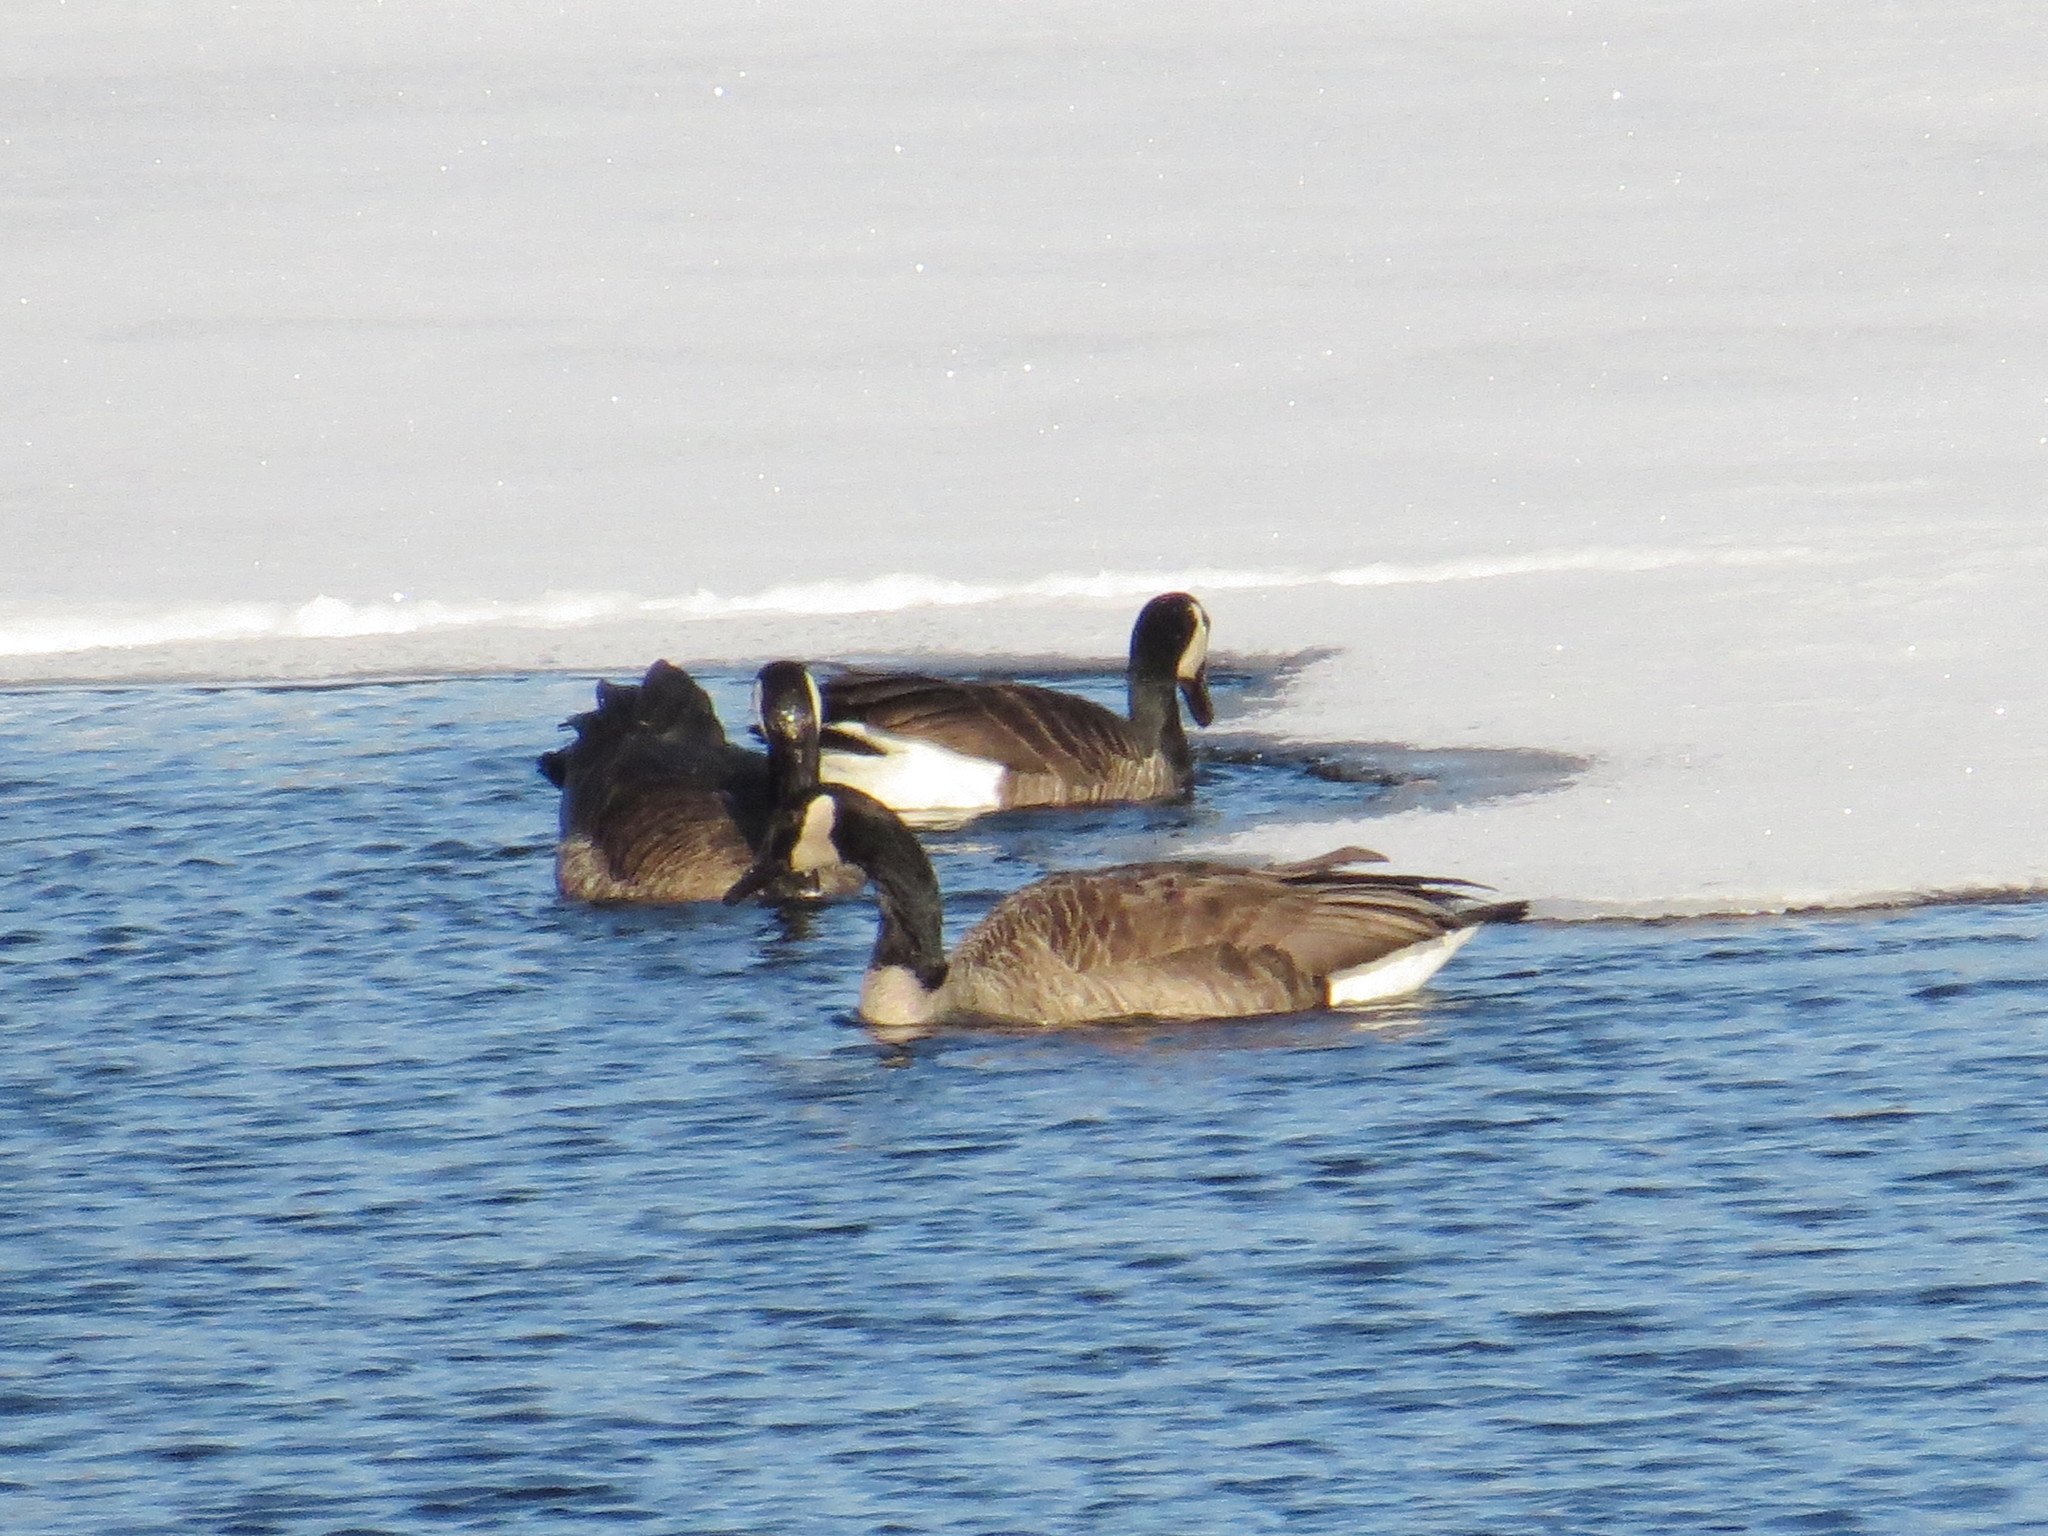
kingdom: Animalia
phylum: Chordata
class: Aves
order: Anseriformes
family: Anatidae
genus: Branta
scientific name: Branta canadensis
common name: Canada goose
